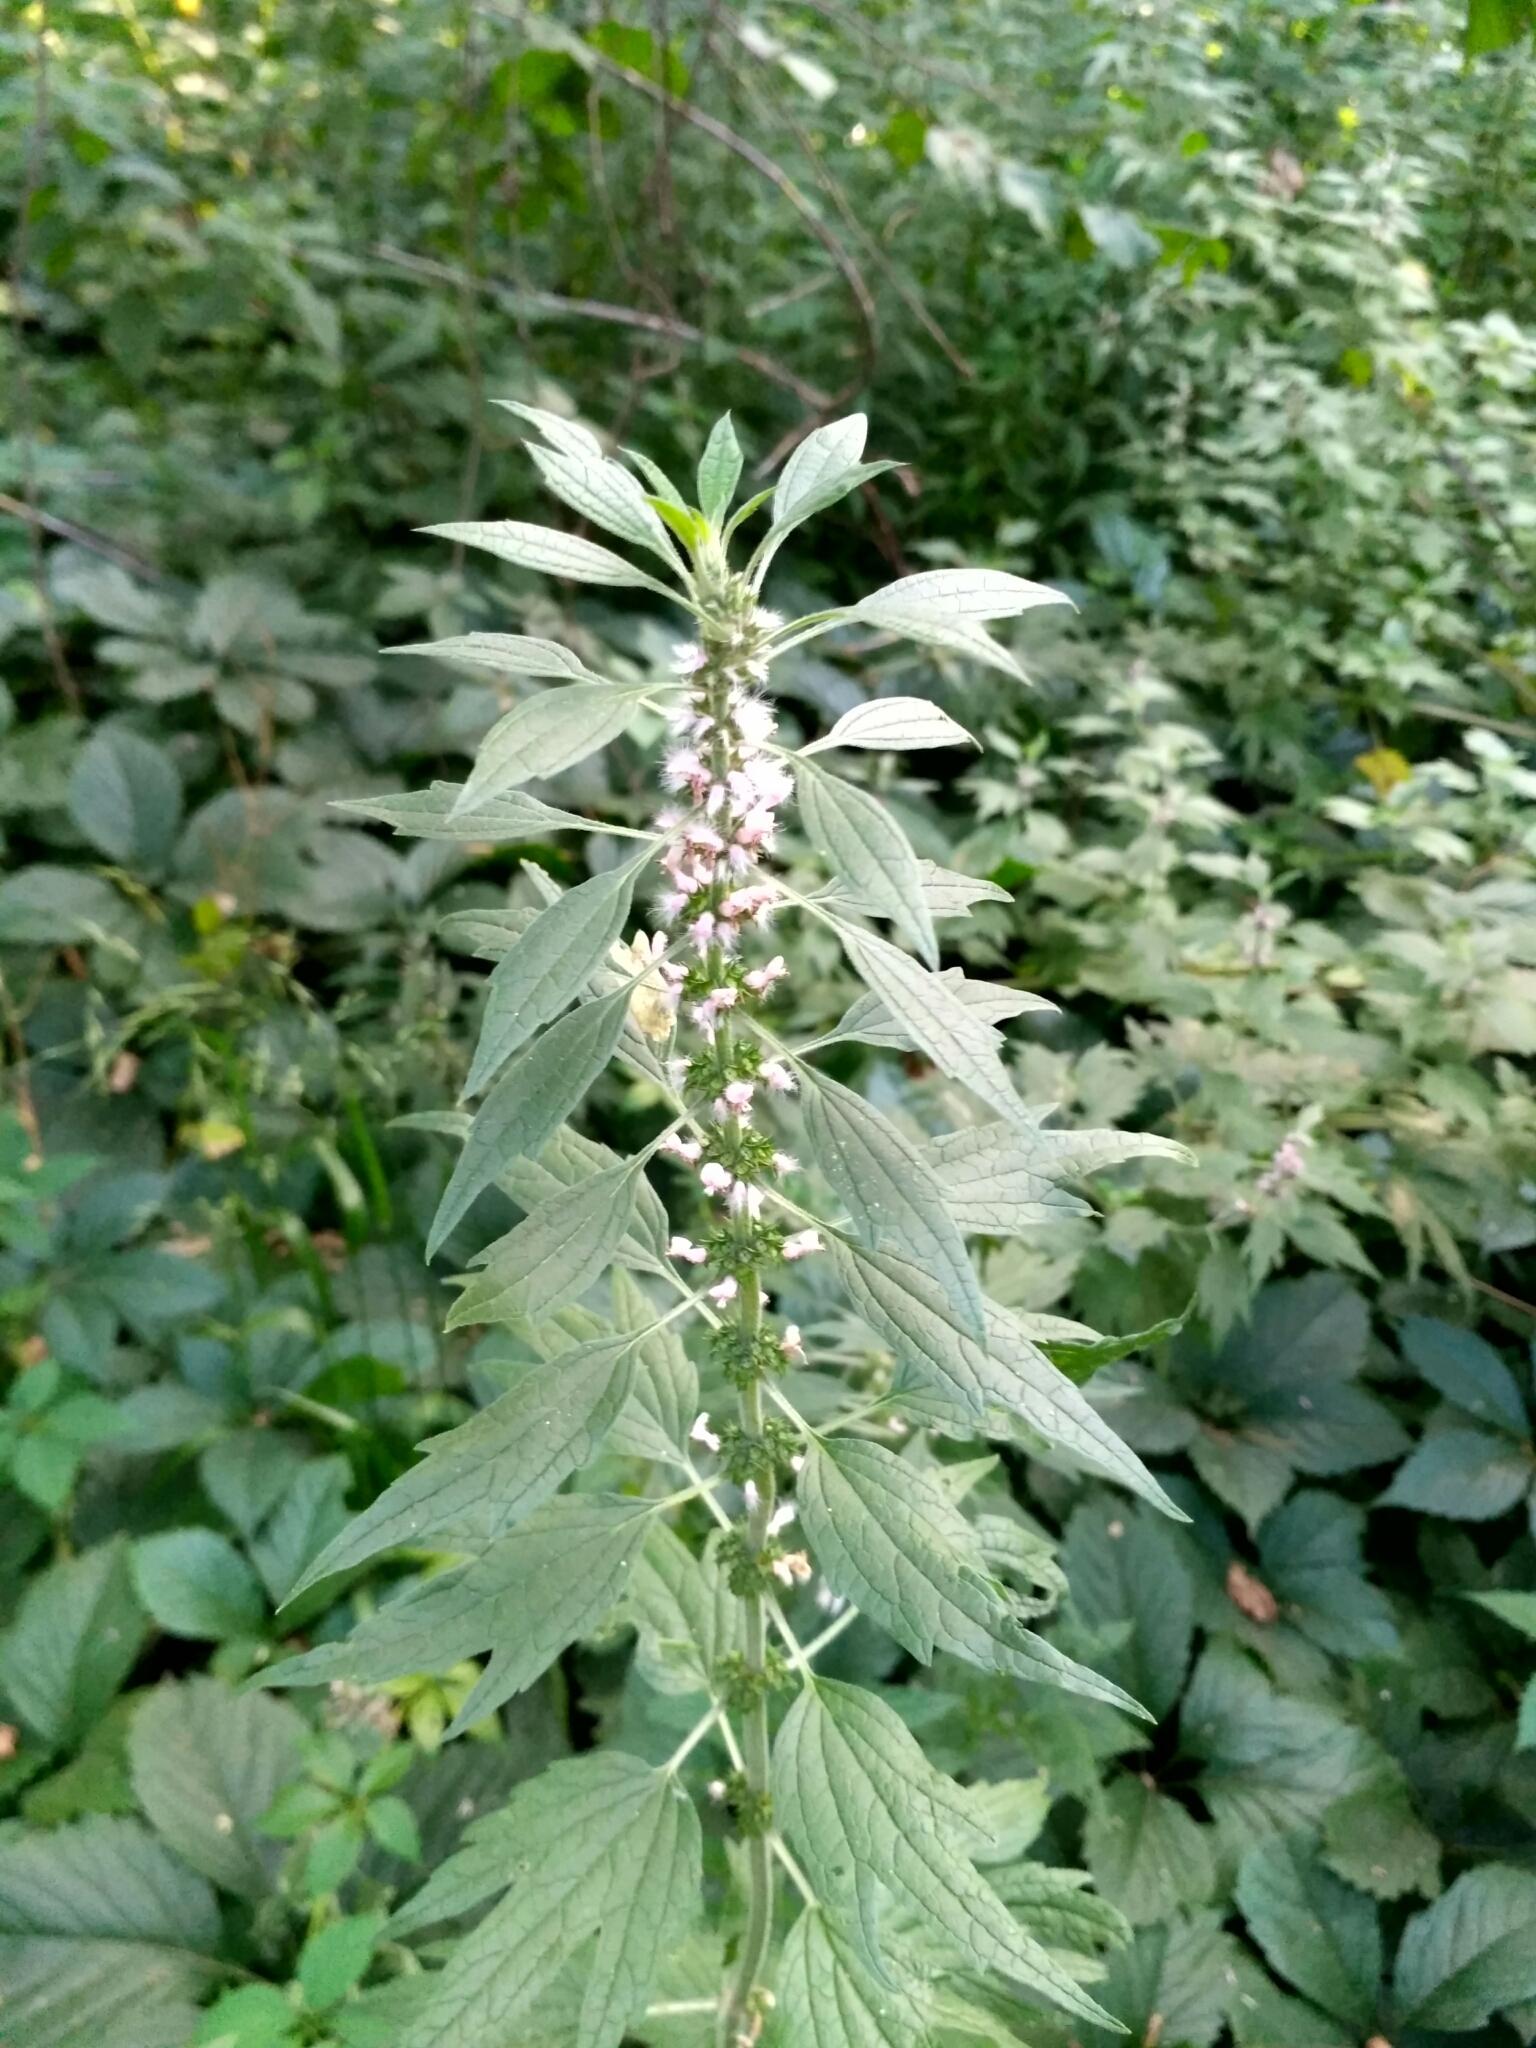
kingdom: Plantae
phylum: Tracheophyta
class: Magnoliopsida
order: Lamiales
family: Lamiaceae
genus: Leonurus
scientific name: Leonurus quinquelobatus
